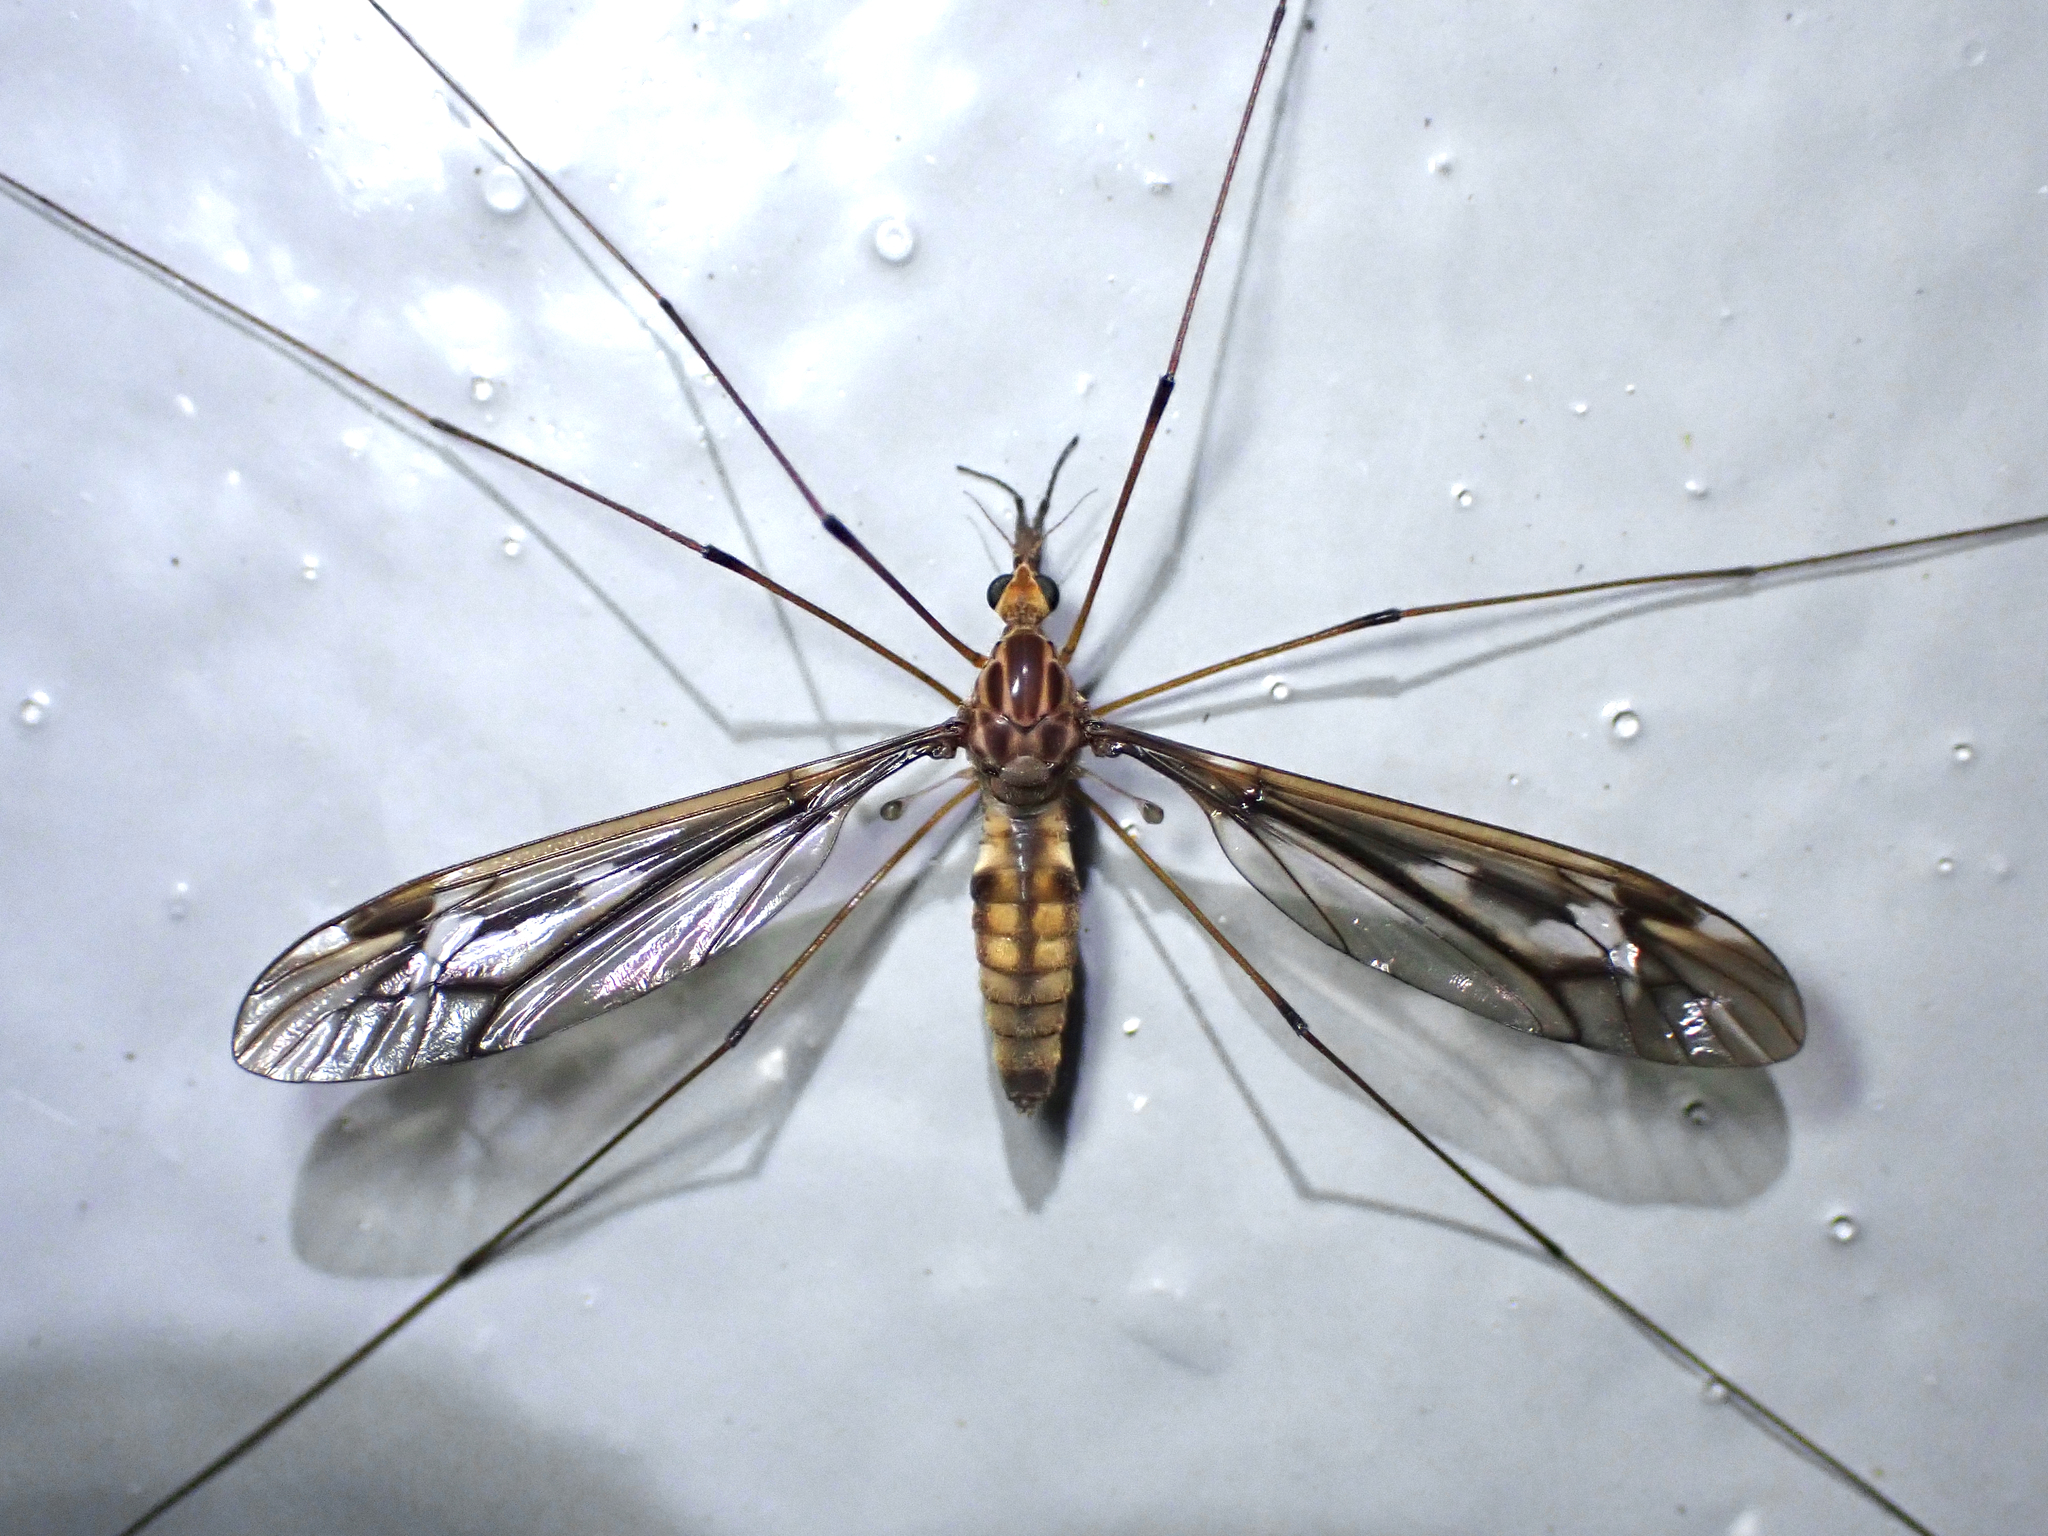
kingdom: Animalia
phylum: Arthropoda
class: Insecta
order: Diptera
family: Tipulidae
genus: Leptotarsus
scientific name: Leptotarsus huttoni
